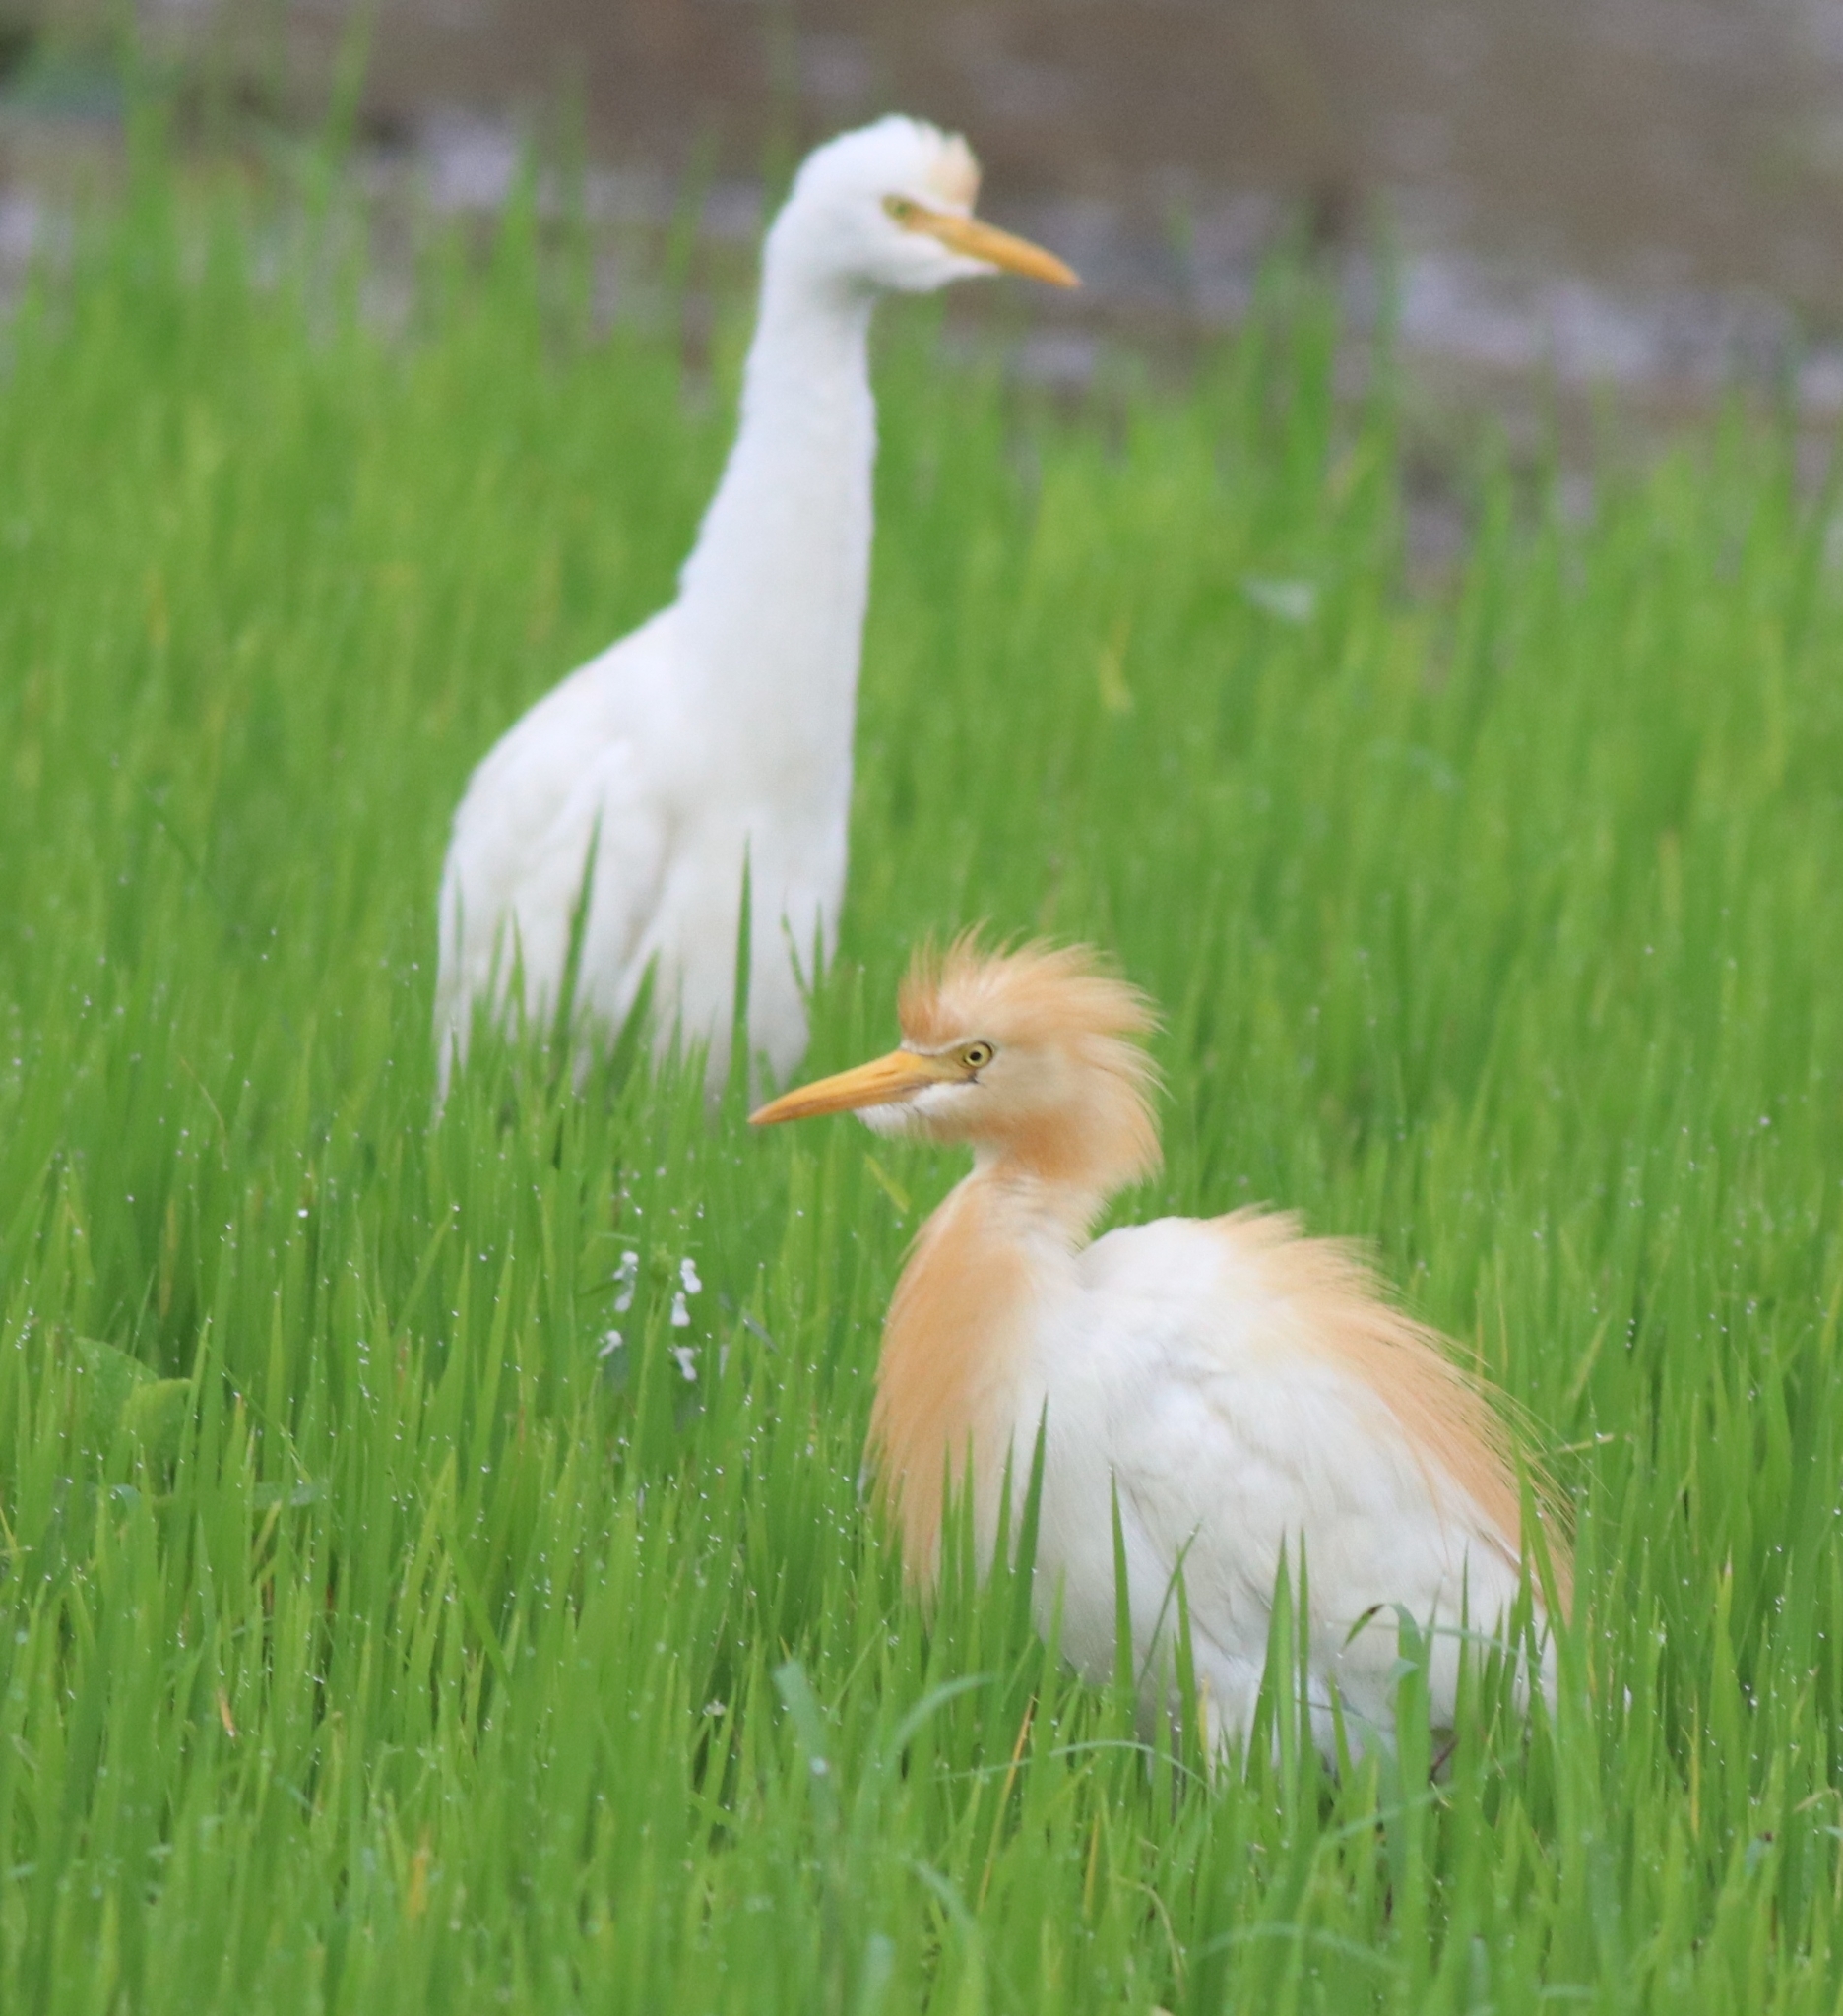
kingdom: Animalia
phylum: Chordata
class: Aves
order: Pelecaniformes
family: Ardeidae
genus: Bubulcus
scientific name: Bubulcus coromandus
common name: Eastern cattle egret
